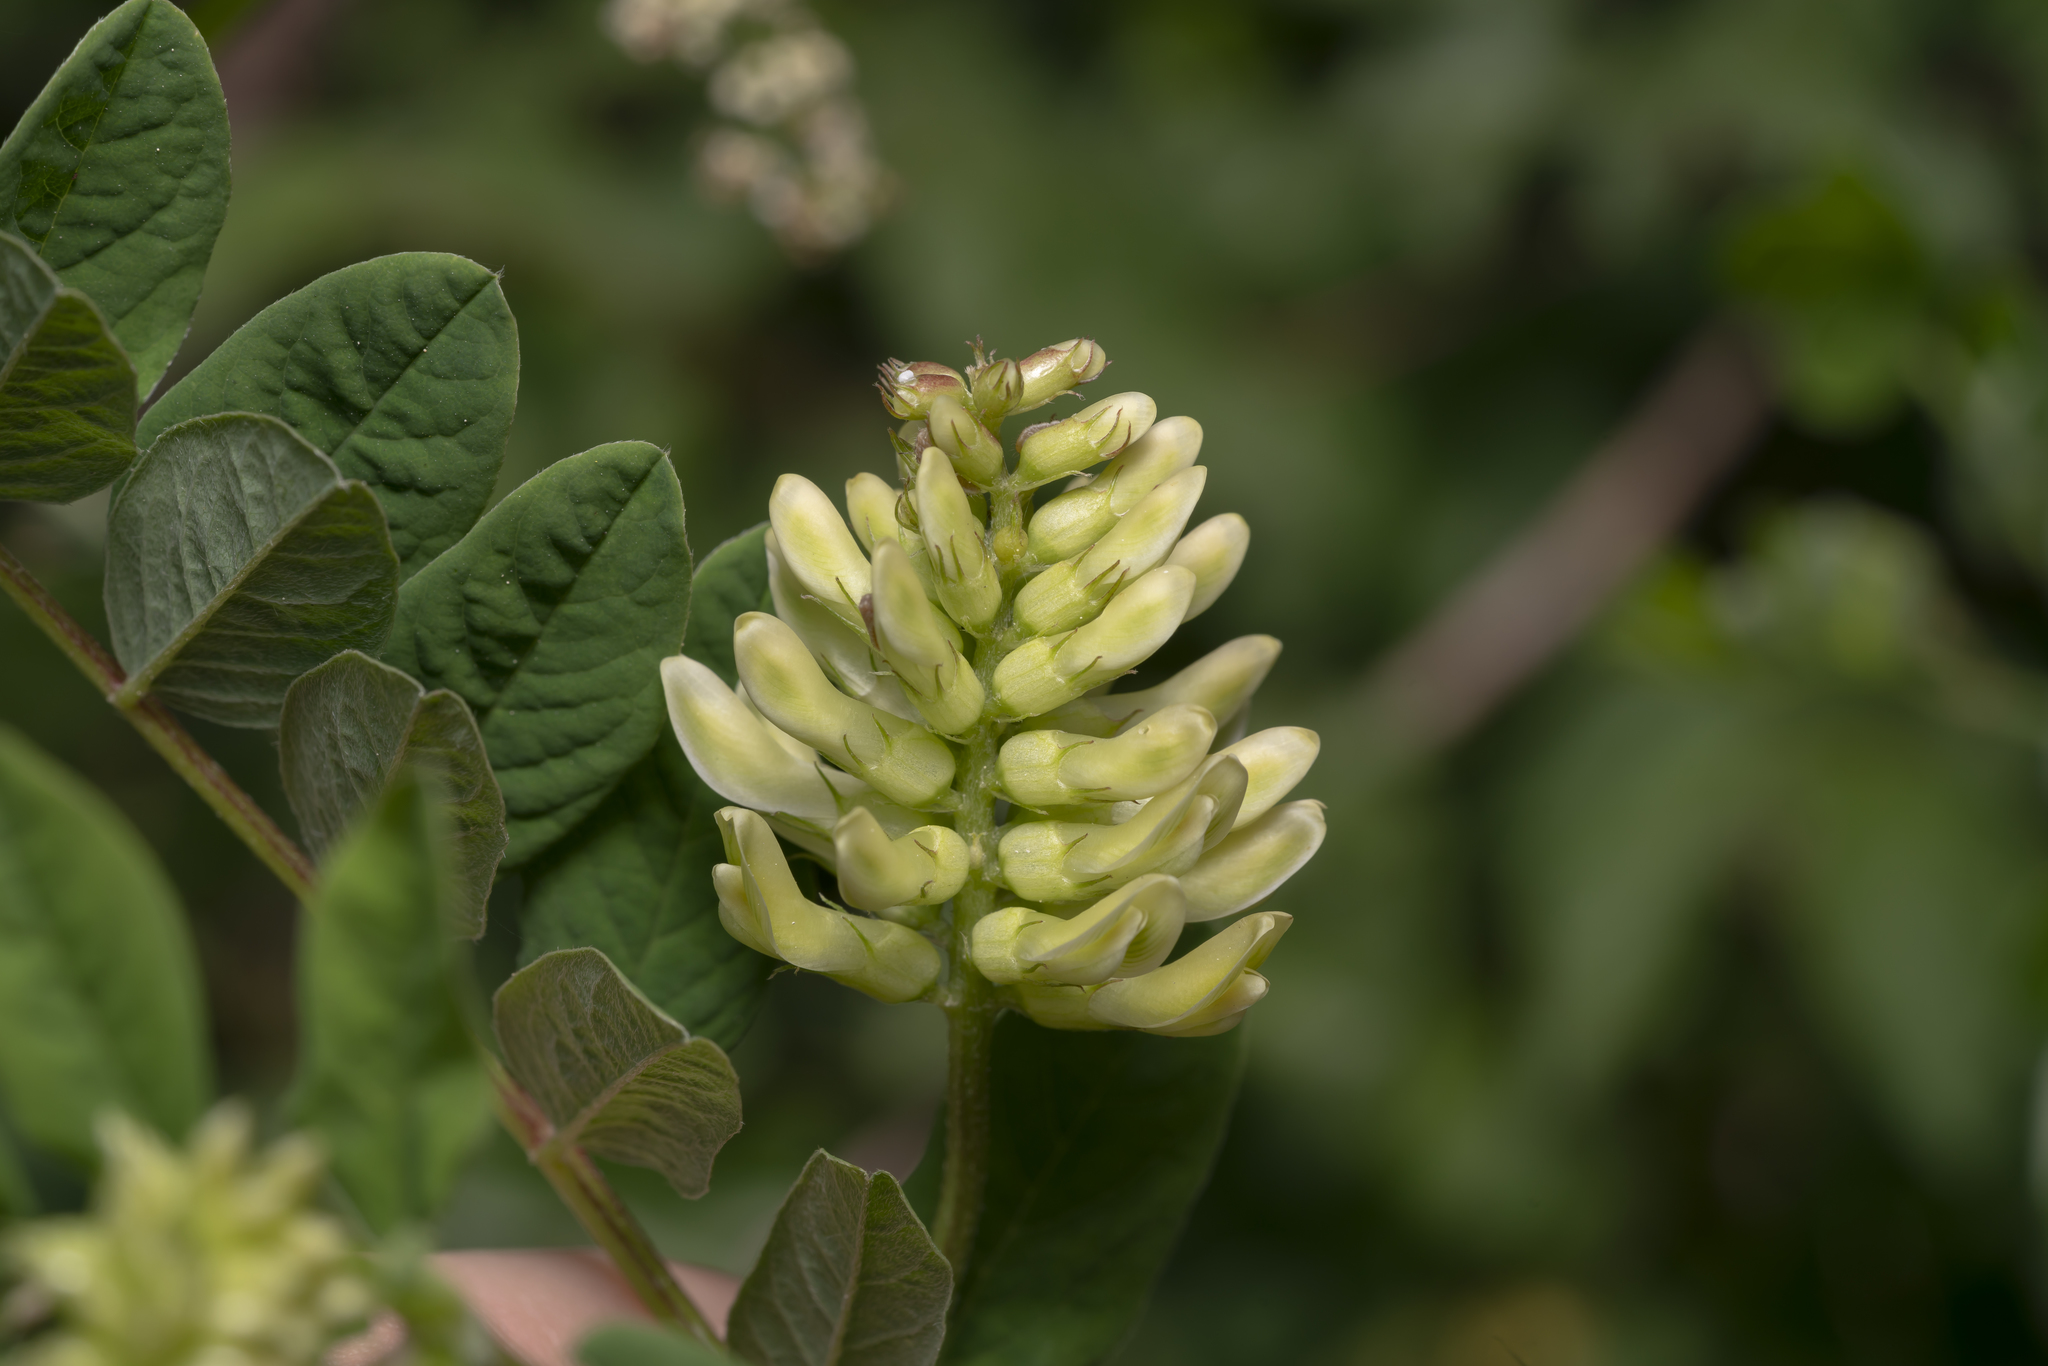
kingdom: Plantae
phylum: Tracheophyta
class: Magnoliopsida
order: Fabales
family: Fabaceae
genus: Astragalus
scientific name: Astragalus glycyphyllos
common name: Wild liquorice
